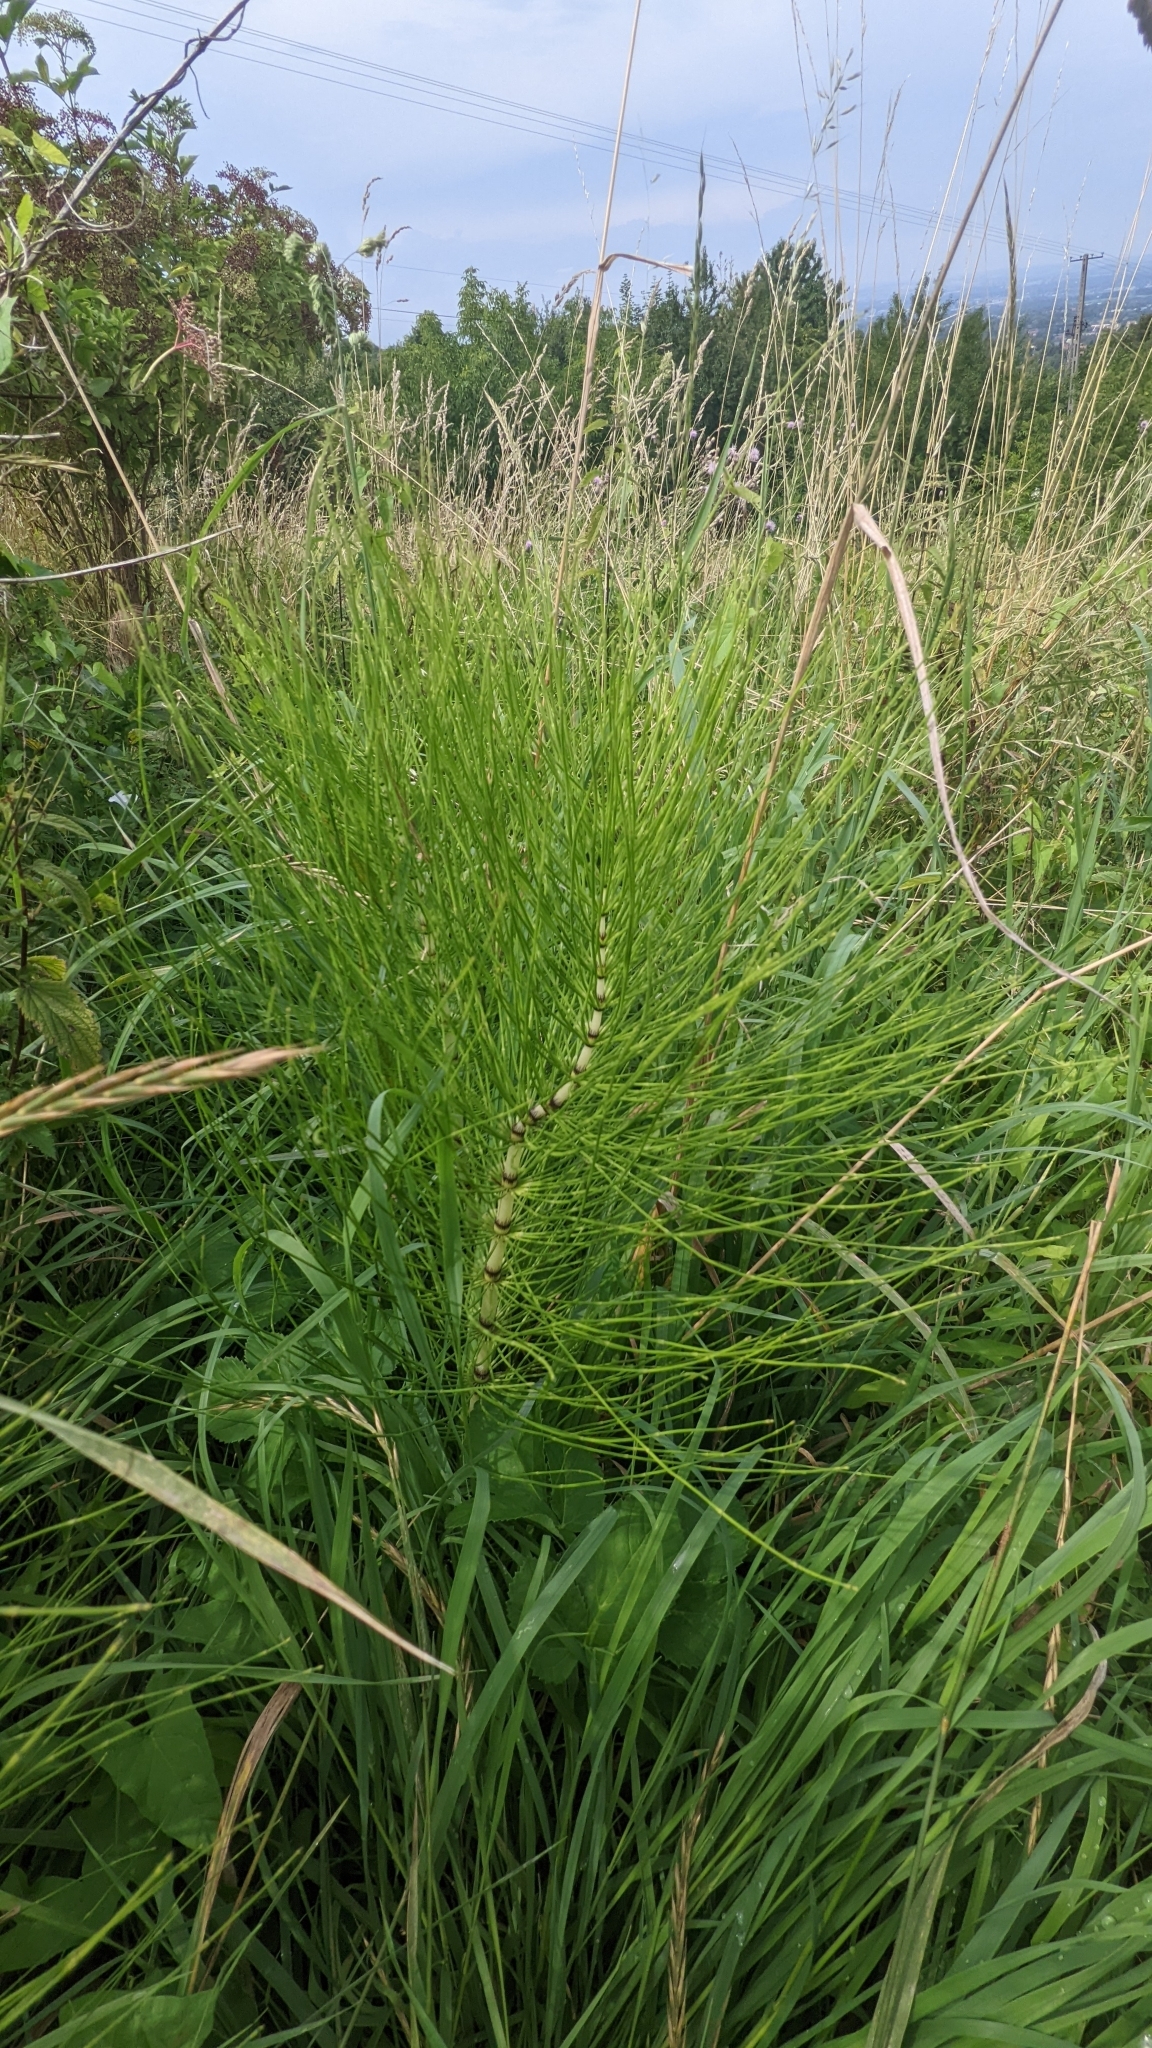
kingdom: Plantae
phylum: Tracheophyta
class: Polypodiopsida
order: Equisetales
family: Equisetaceae
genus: Equisetum
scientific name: Equisetum telmateia
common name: Great horsetail
